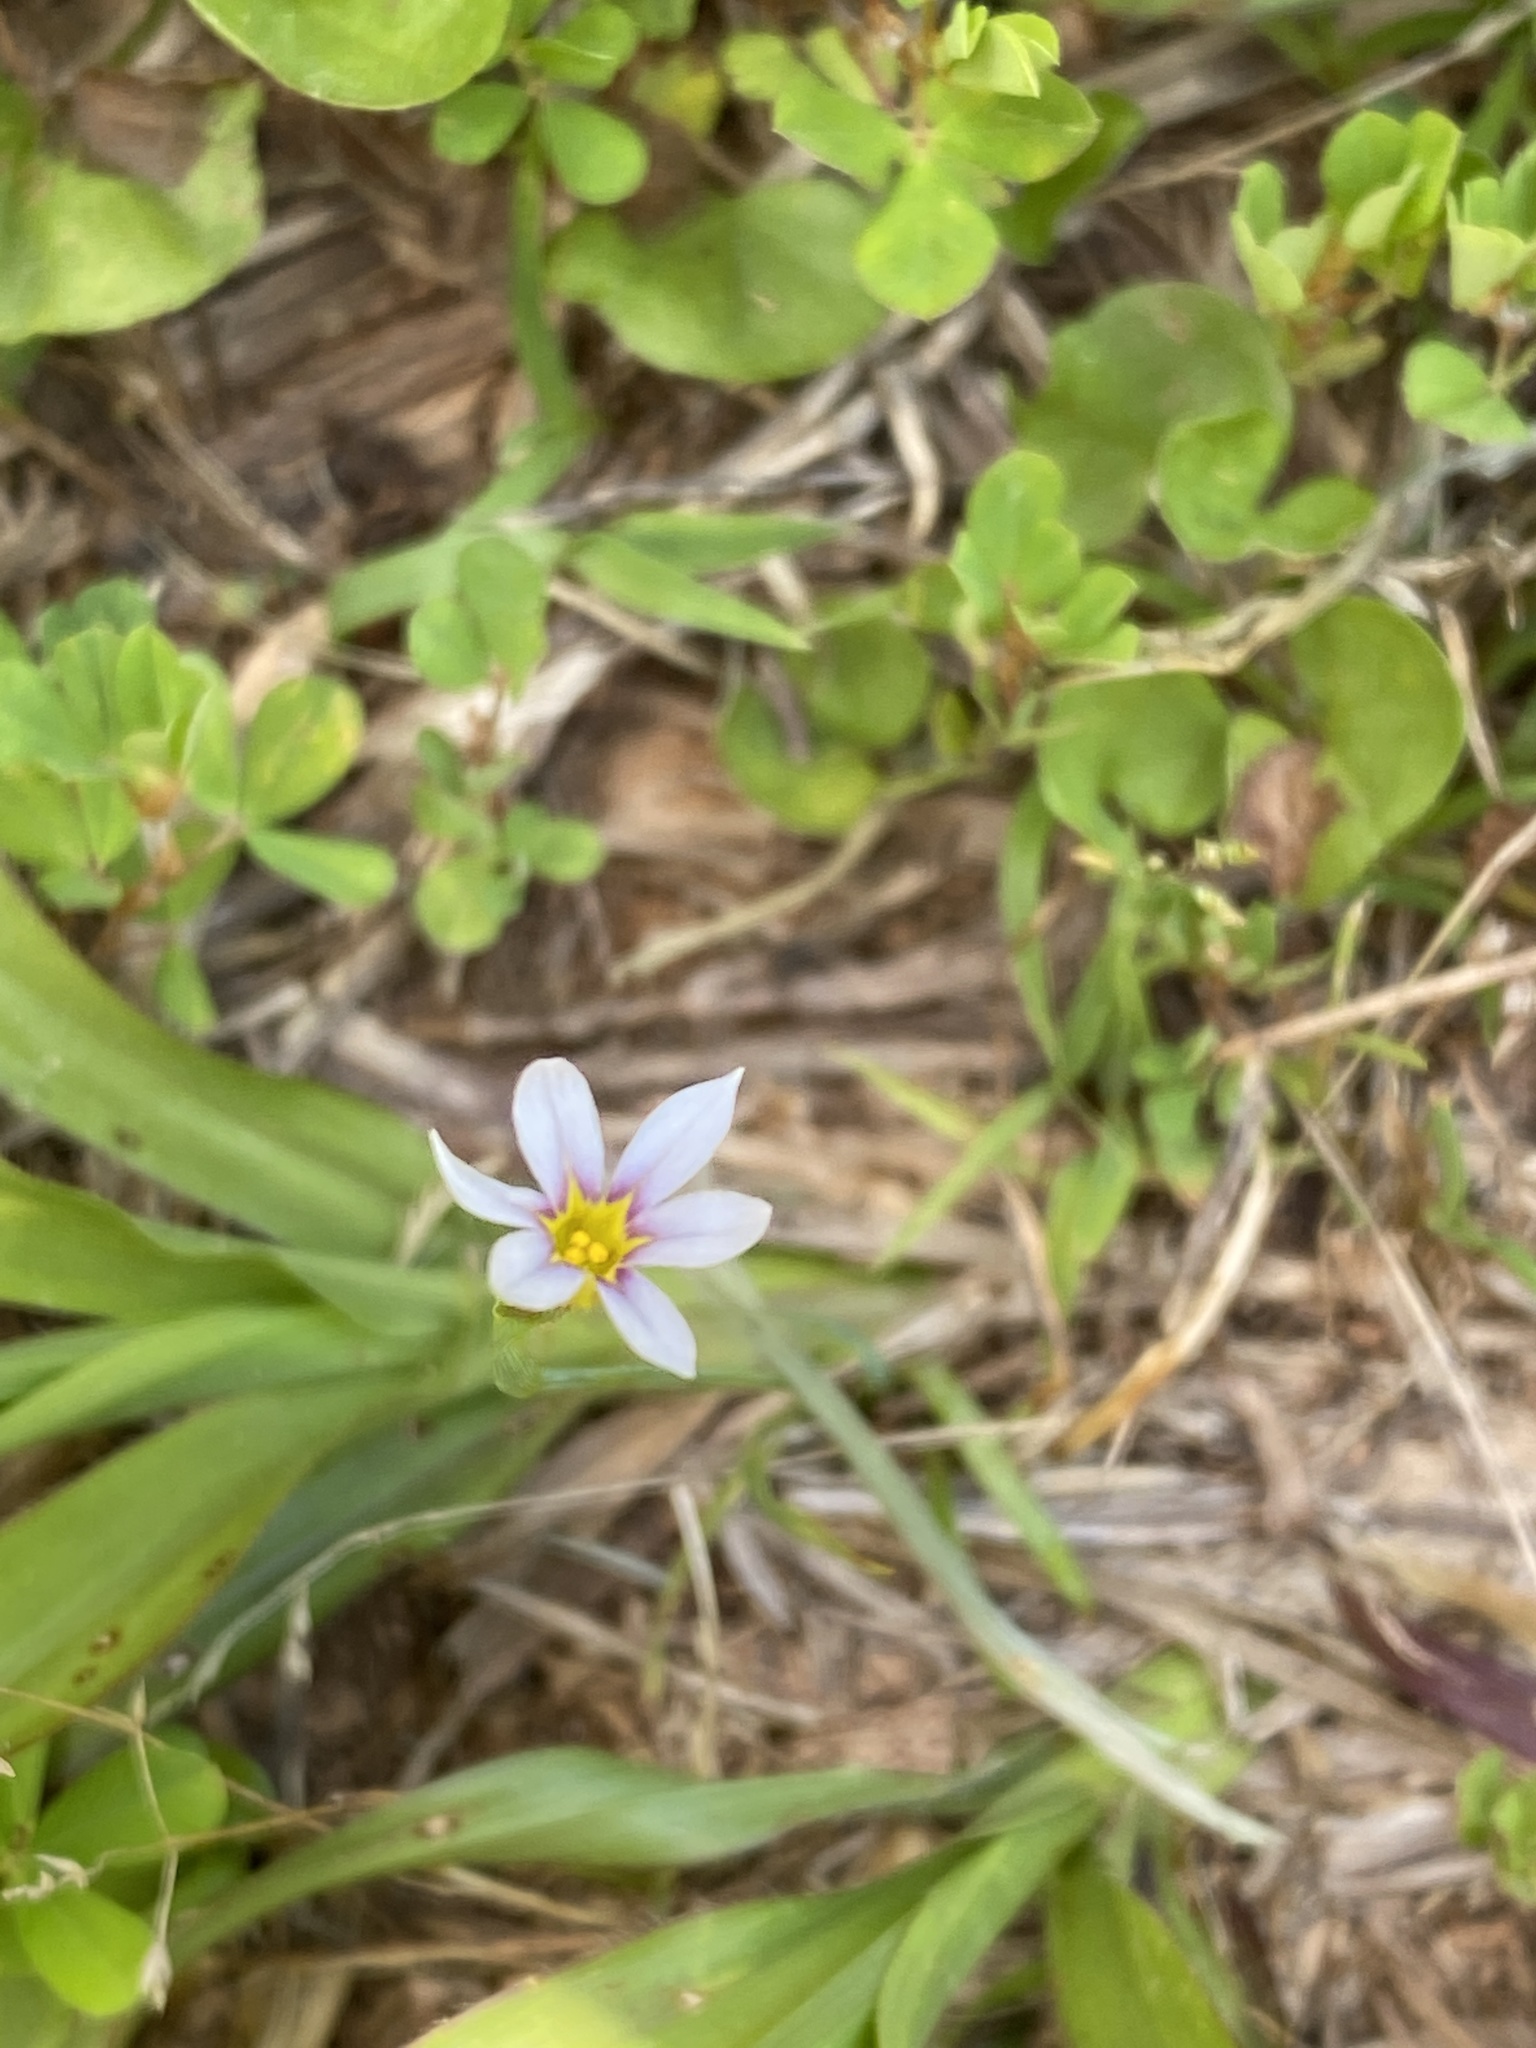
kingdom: Plantae
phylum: Tracheophyta
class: Liliopsida
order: Asparagales
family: Iridaceae
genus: Sisyrinchium
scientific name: Sisyrinchium micranthum
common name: Bermuda pigroot
